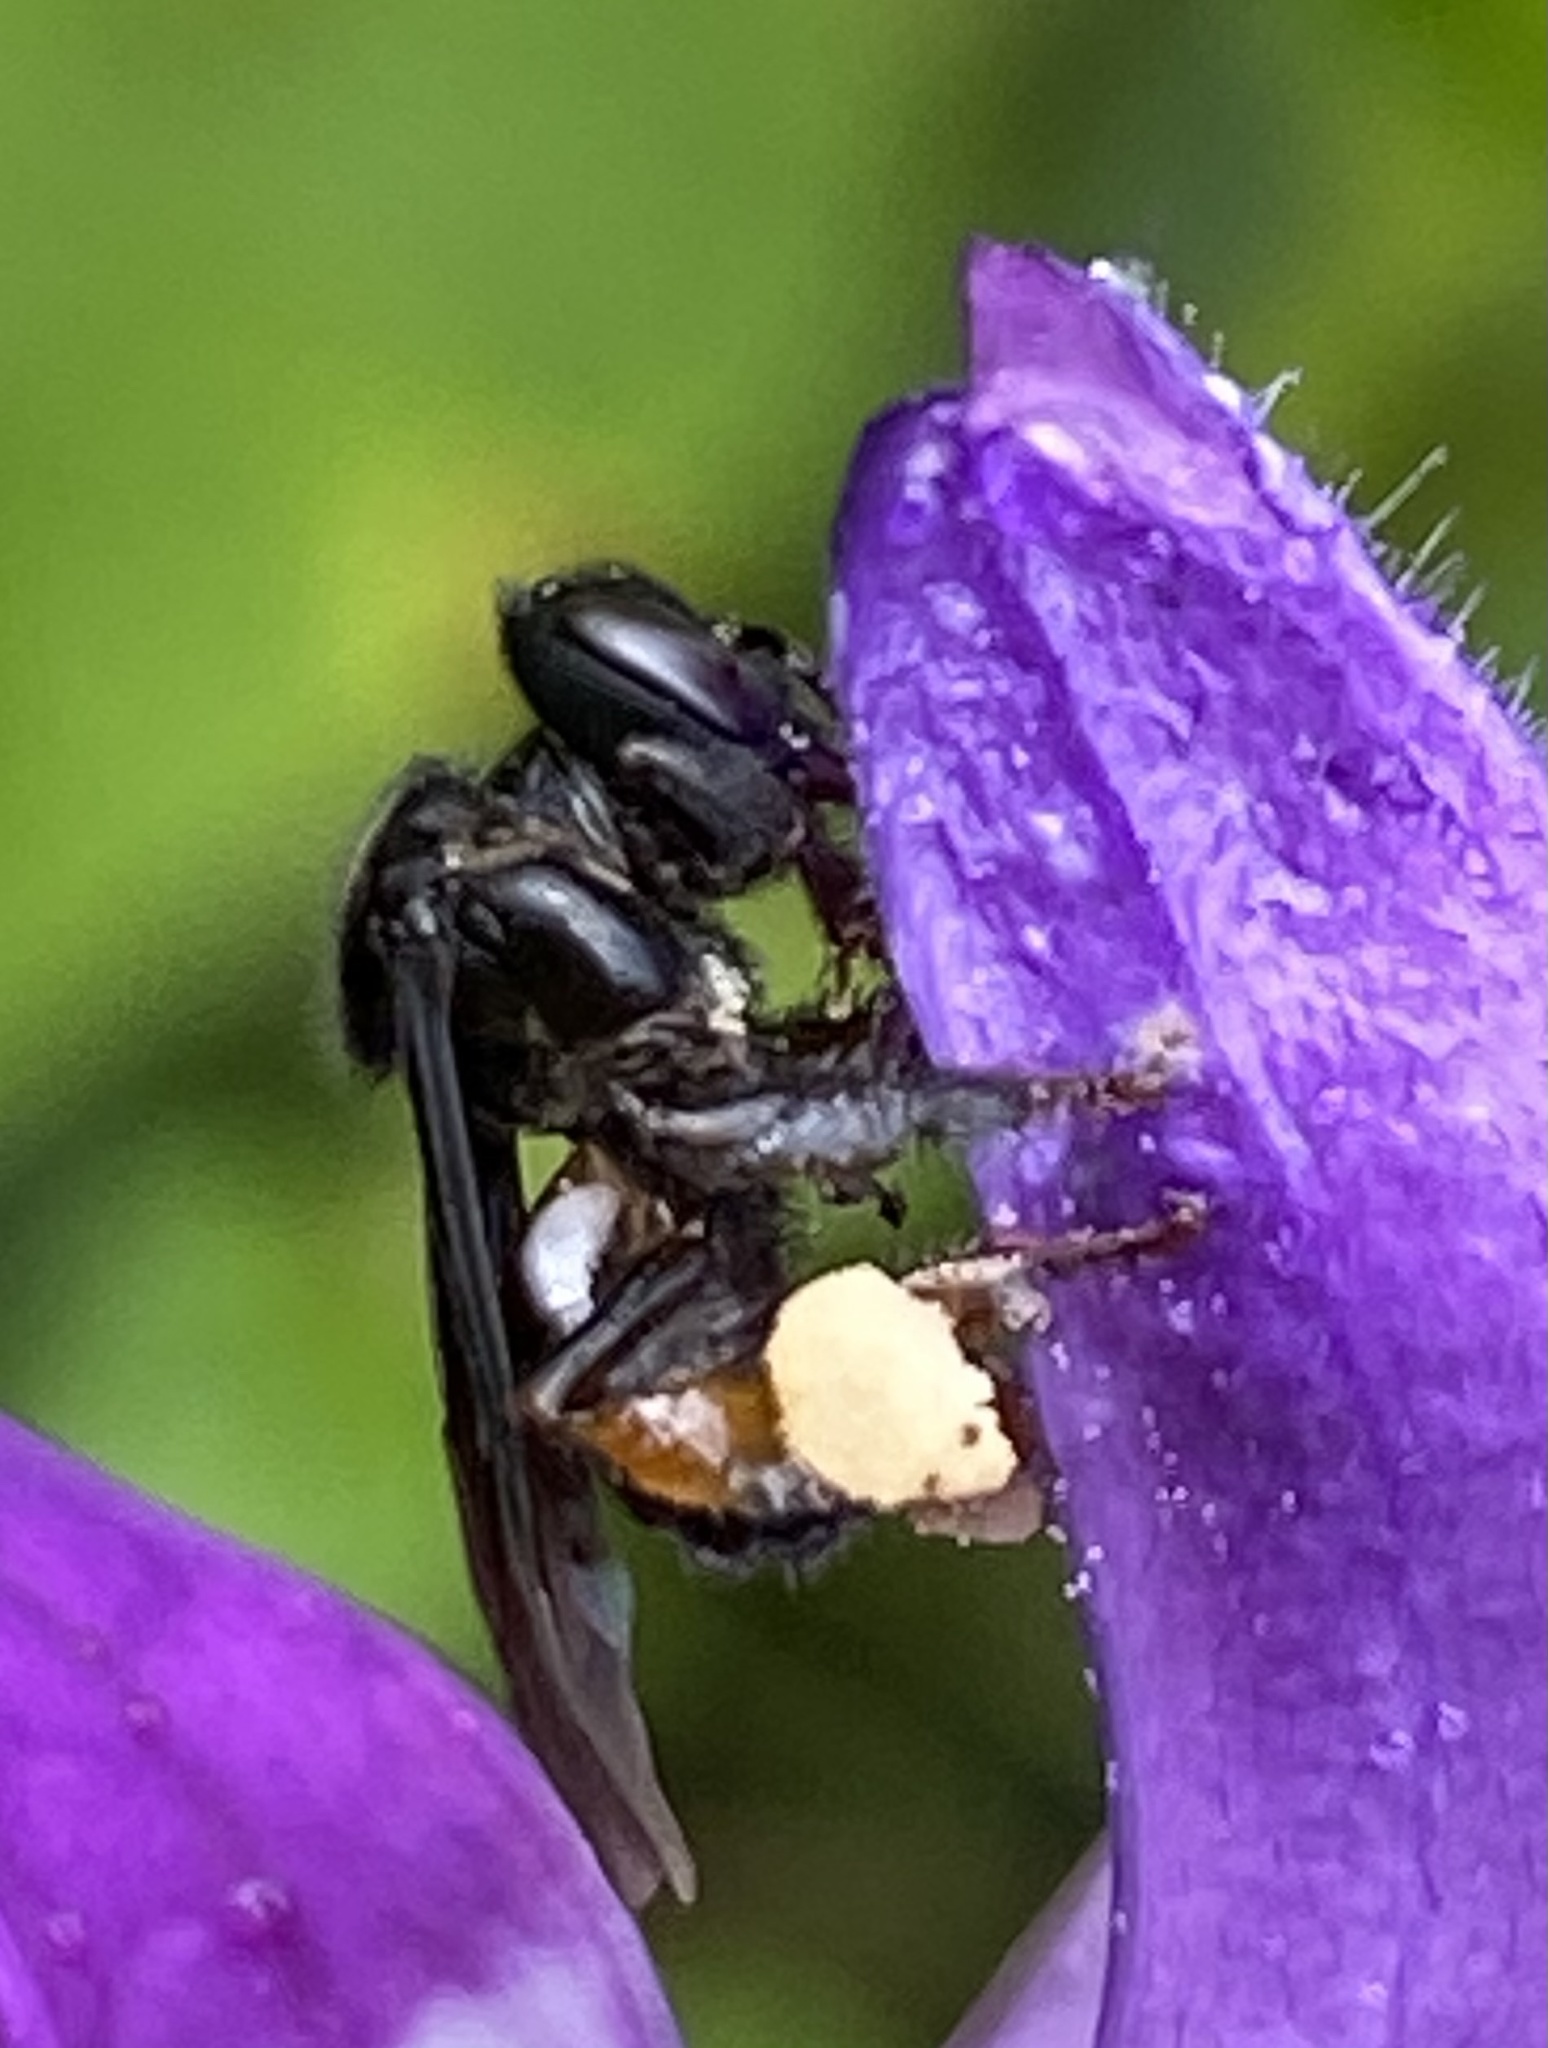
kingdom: Animalia
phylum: Arthropoda
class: Insecta
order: Hymenoptera
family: Apidae
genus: Trigona
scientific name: Trigona spinipes
